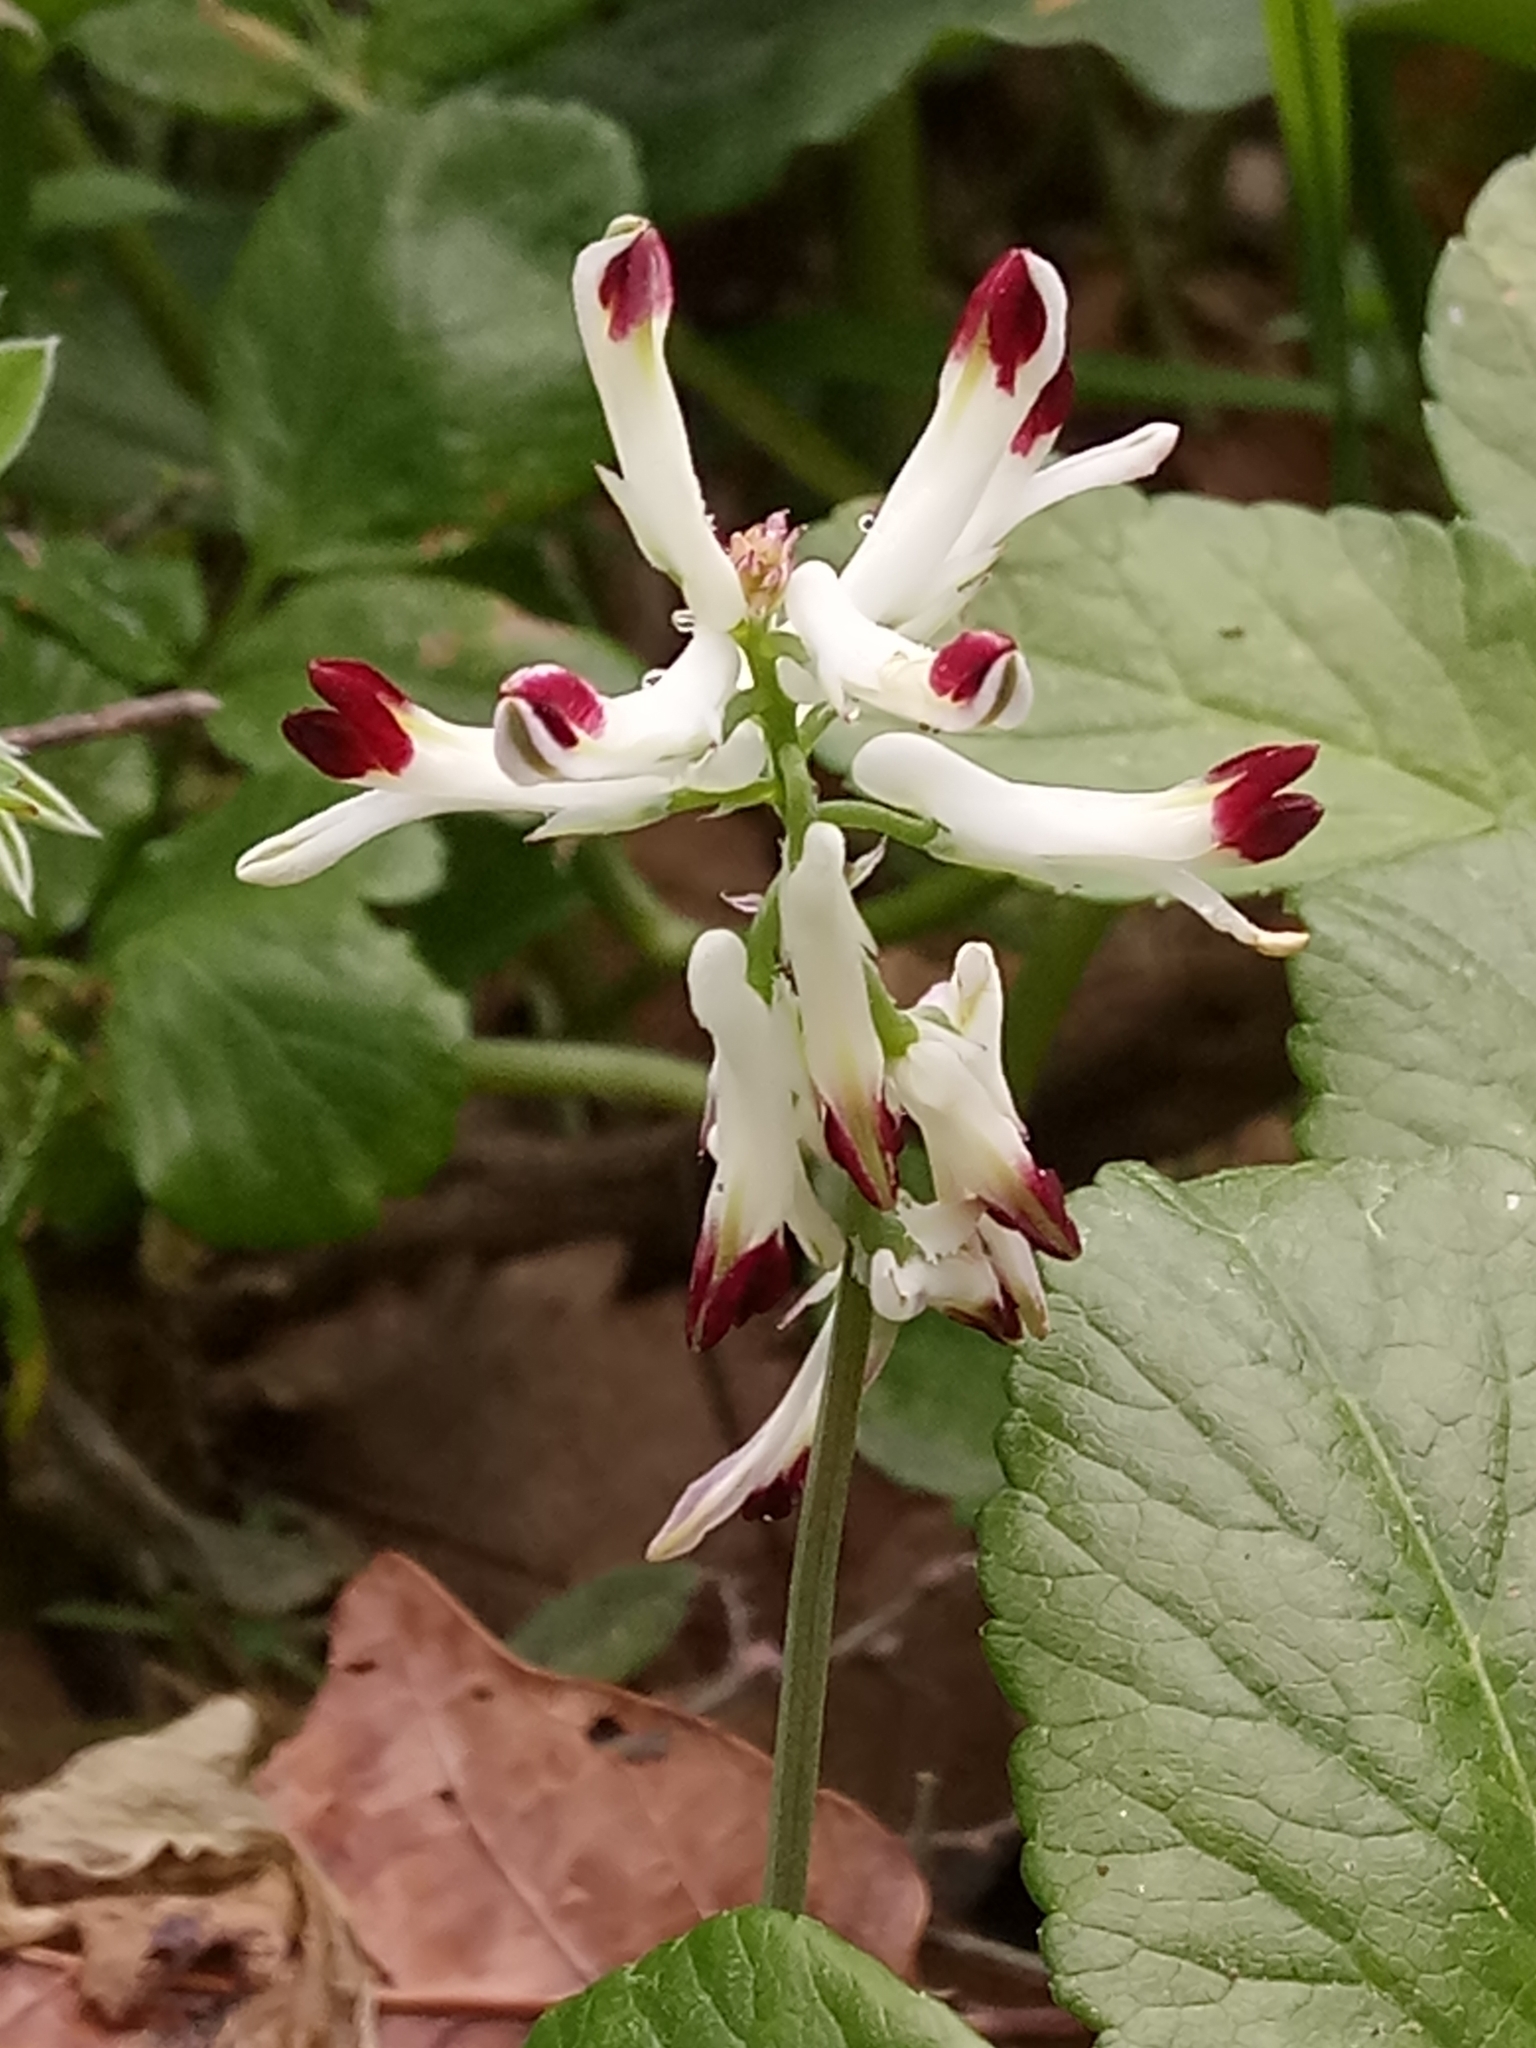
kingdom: Plantae
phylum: Tracheophyta
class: Magnoliopsida
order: Ranunculales
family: Papaveraceae
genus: Fumaria
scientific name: Fumaria capreolata
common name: White ramping-fumitory
